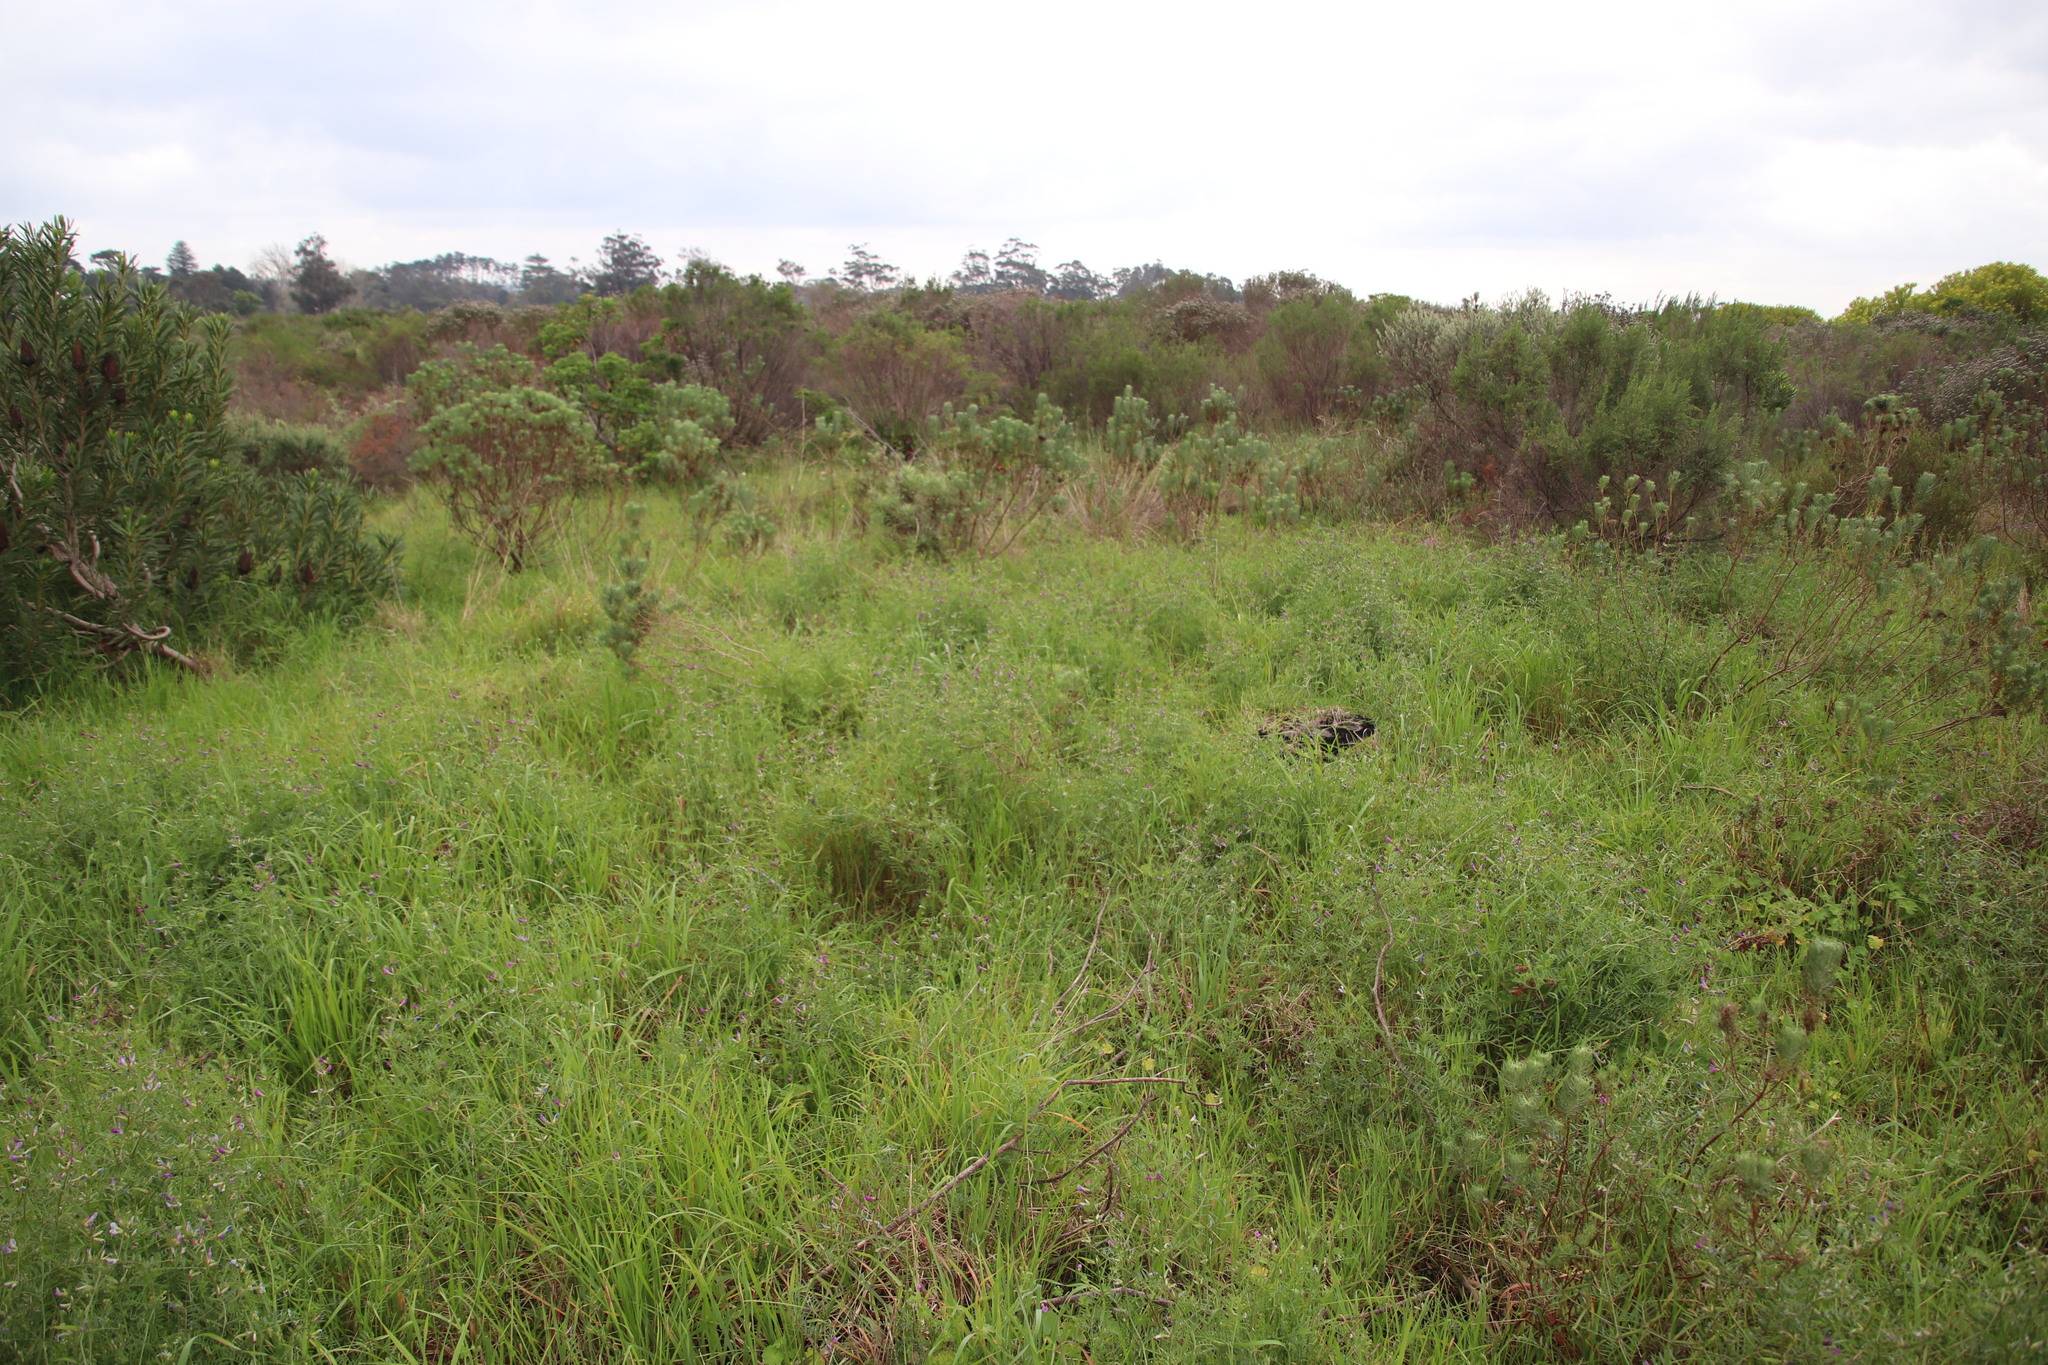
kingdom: Plantae
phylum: Tracheophyta
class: Magnoliopsida
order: Fabales
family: Fabaceae
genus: Vicia
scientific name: Vicia sativa
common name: Garden vetch
